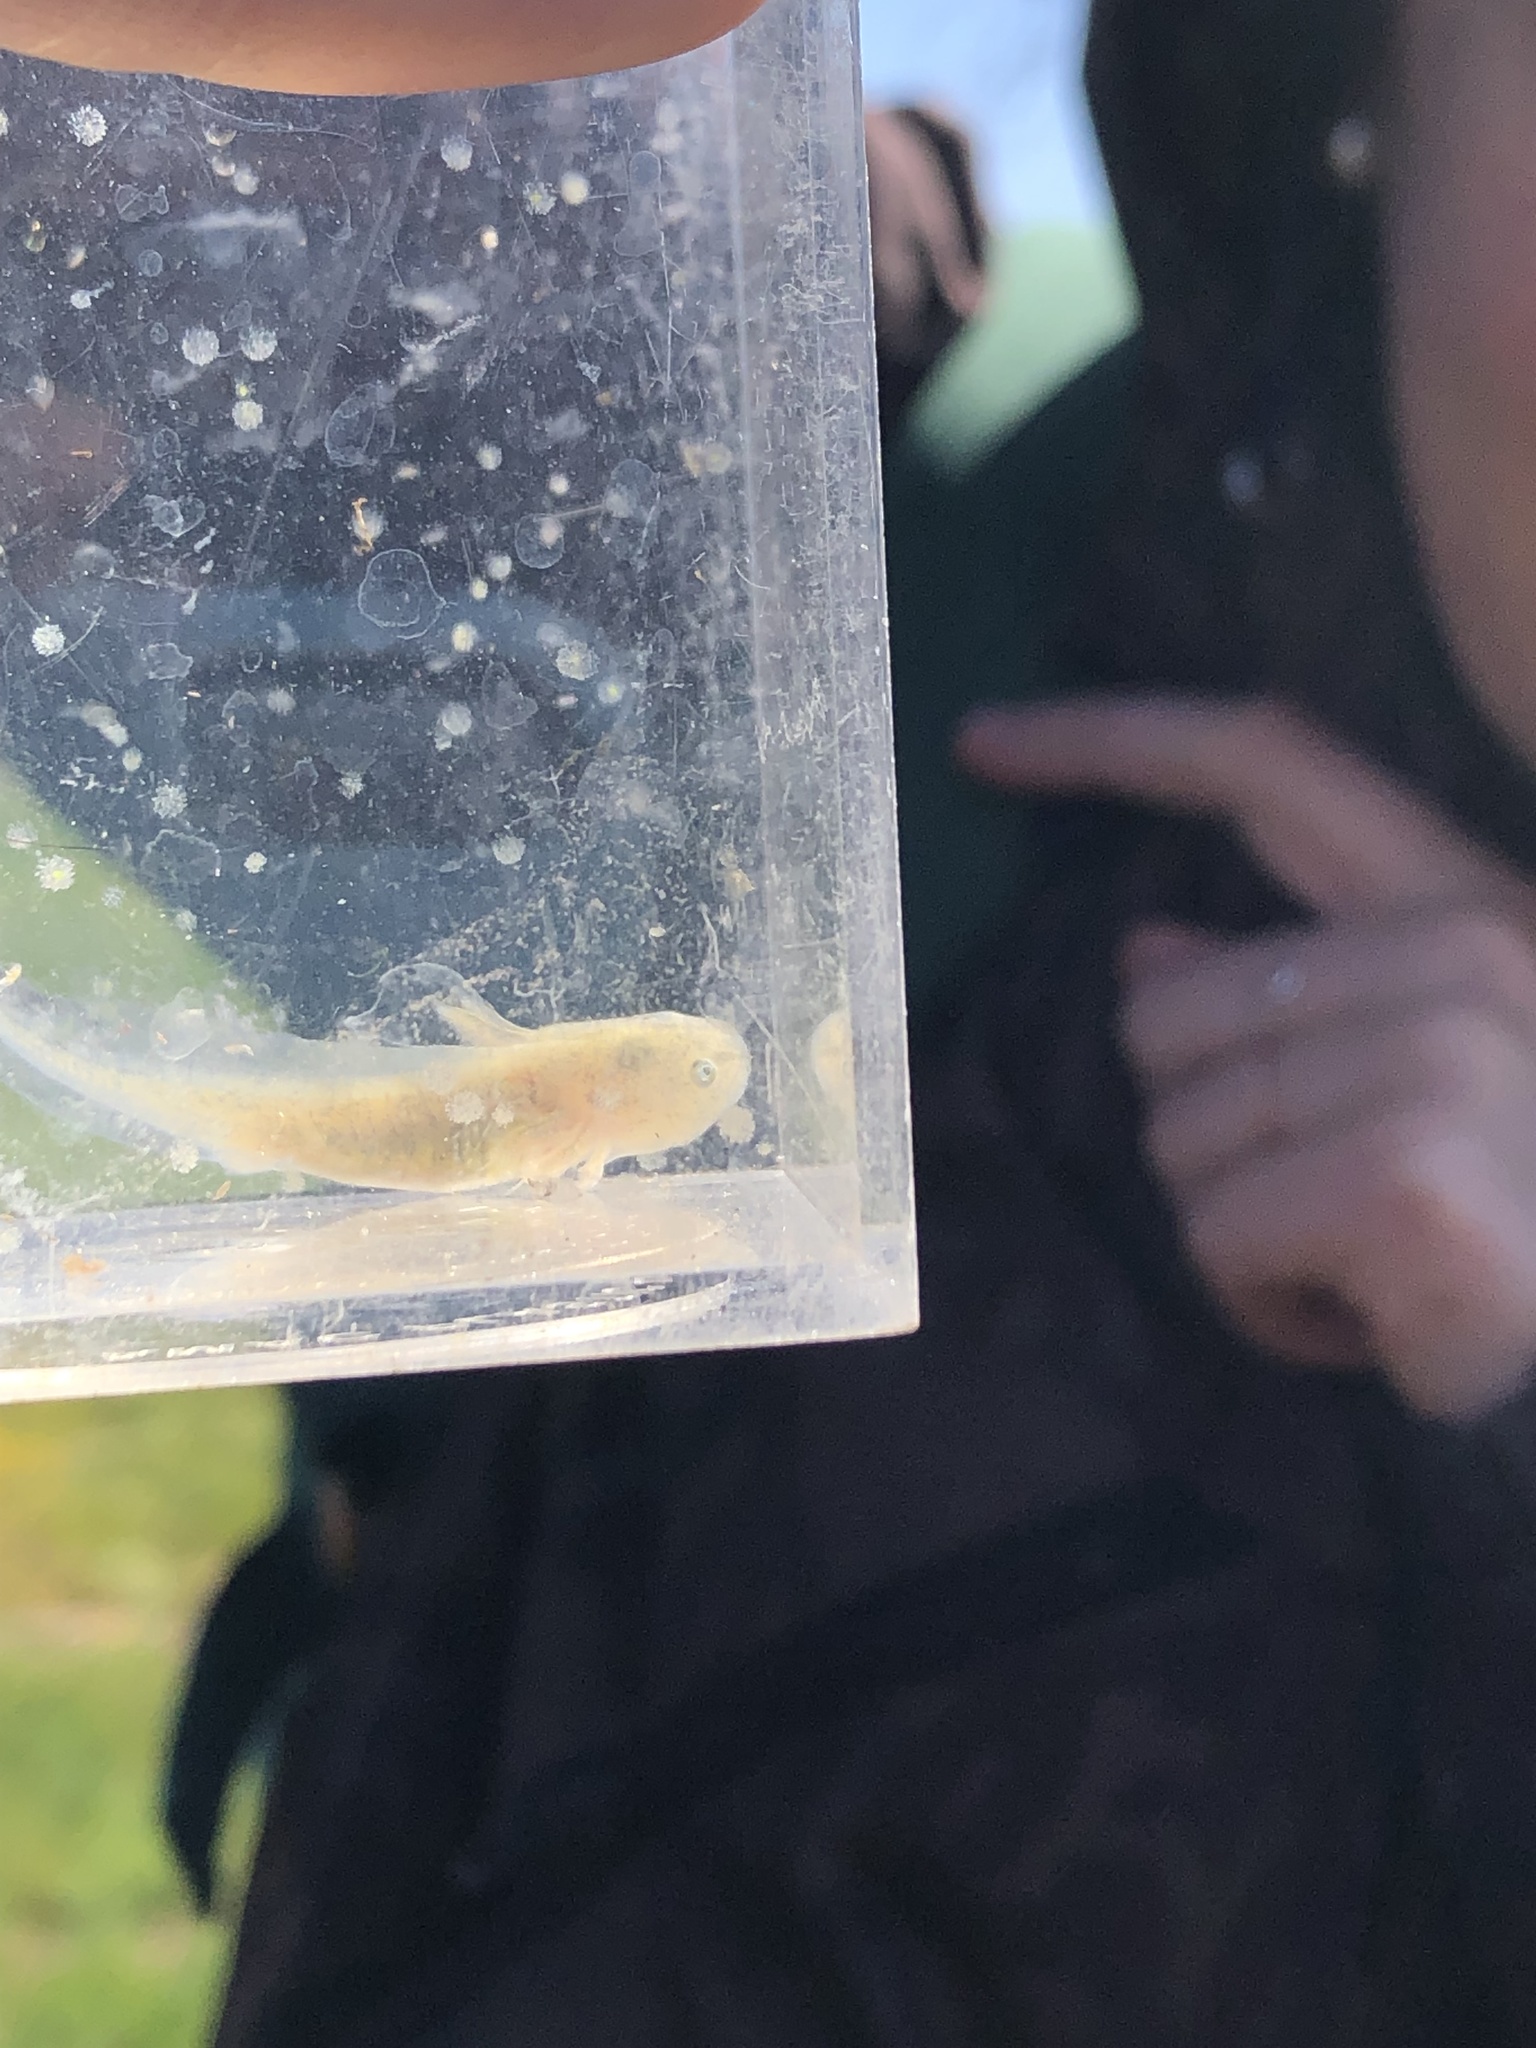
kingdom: Animalia
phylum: Chordata
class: Amphibia
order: Caudata
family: Ambystomatidae
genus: Ambystoma
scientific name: Ambystoma californiense
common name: California tiger salamander
